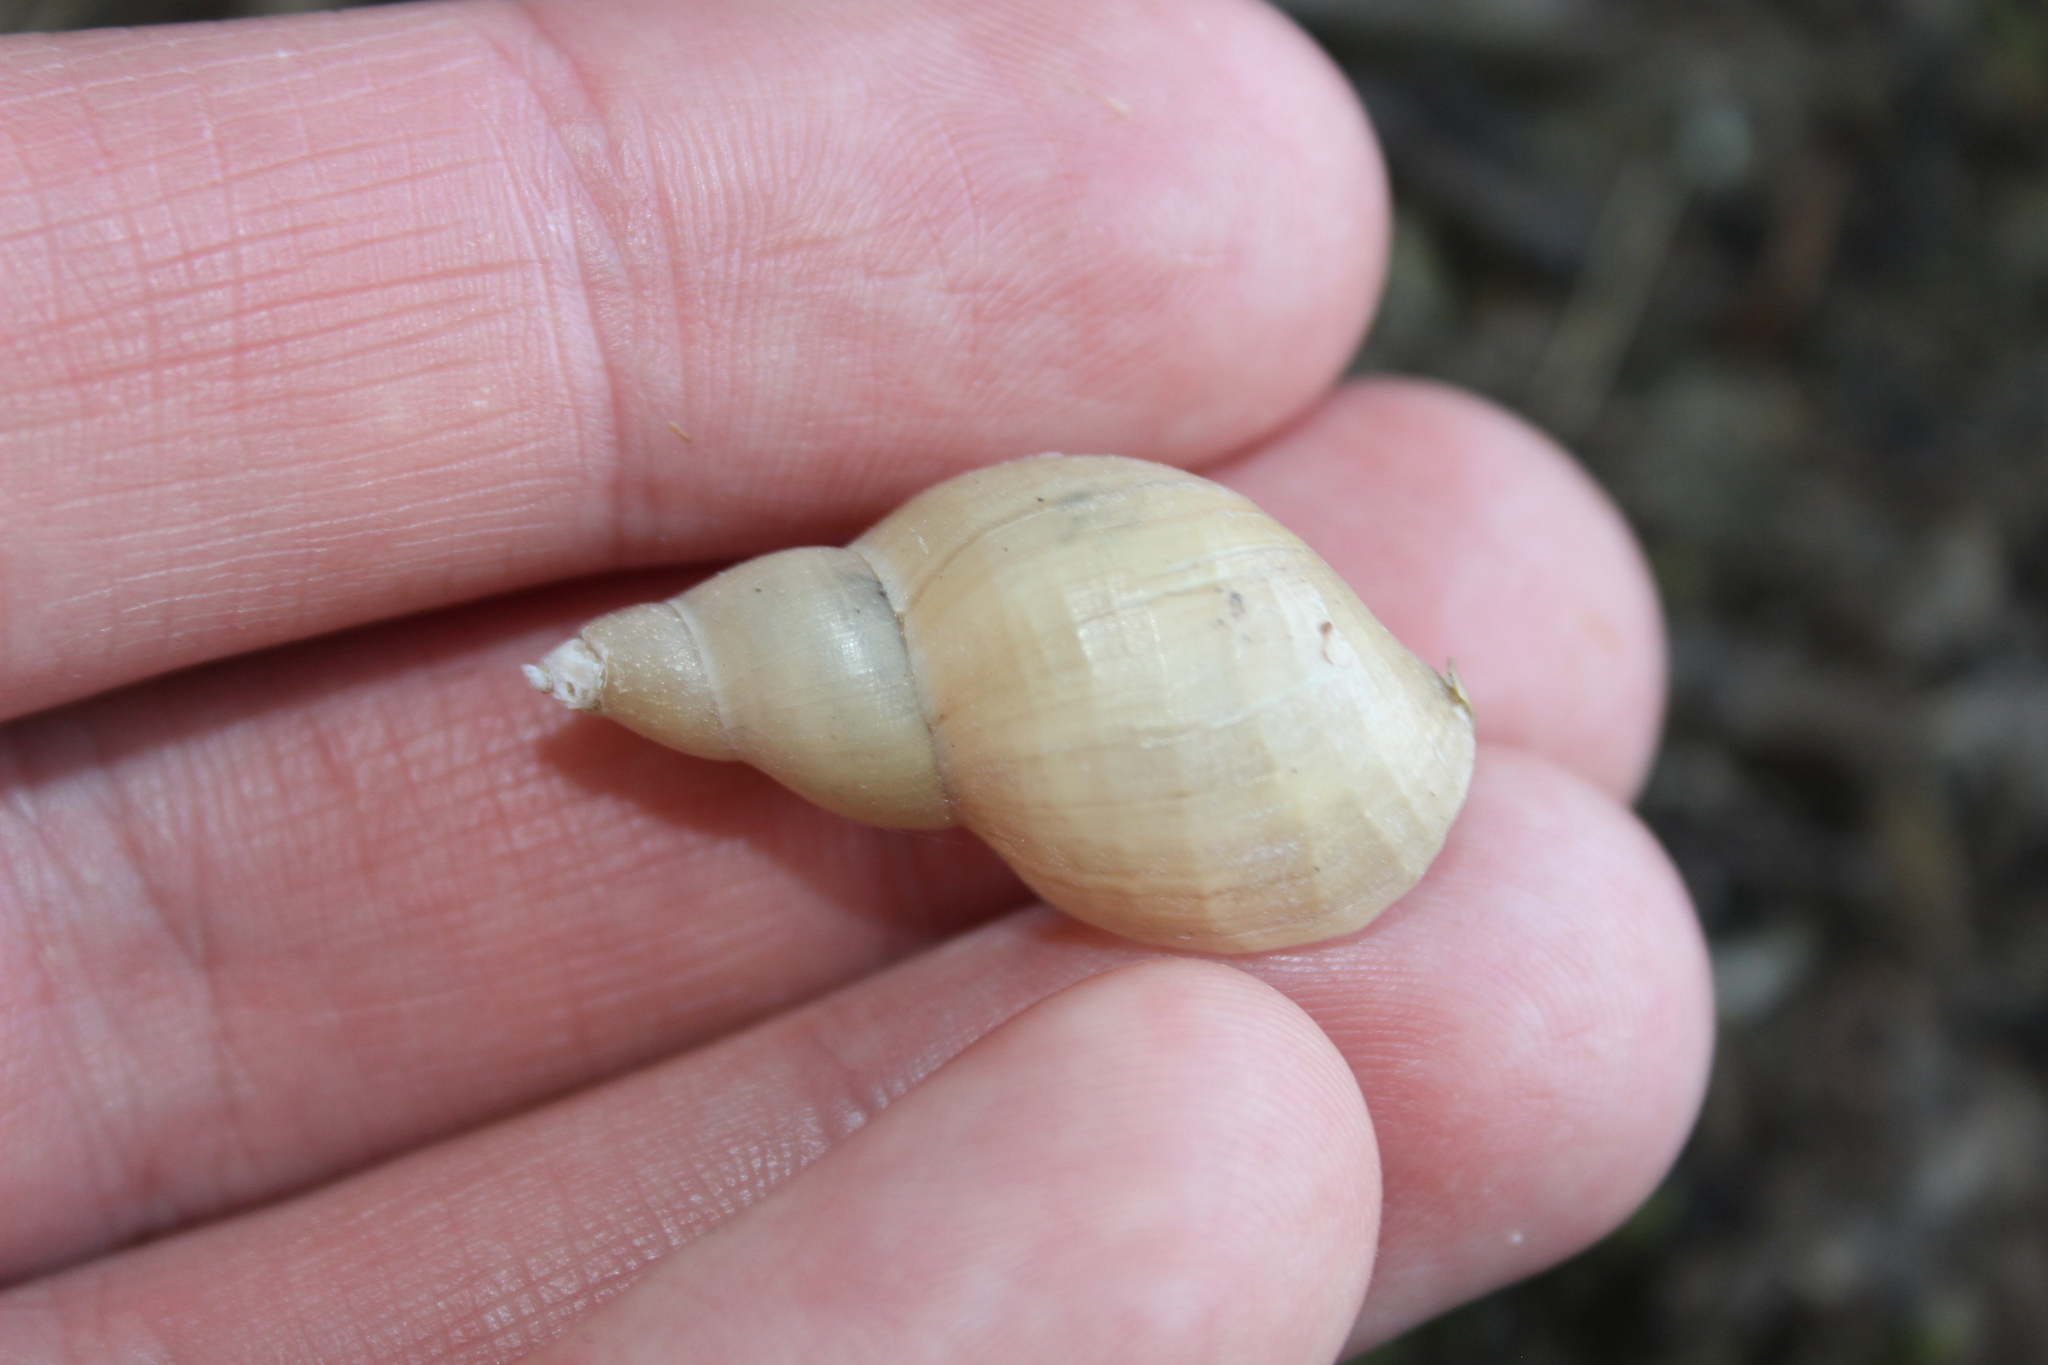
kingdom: Animalia
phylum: Mollusca
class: Gastropoda
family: Lymnaeidae
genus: Lymnaea
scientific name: Lymnaea stagnalis
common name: Great pond snail
